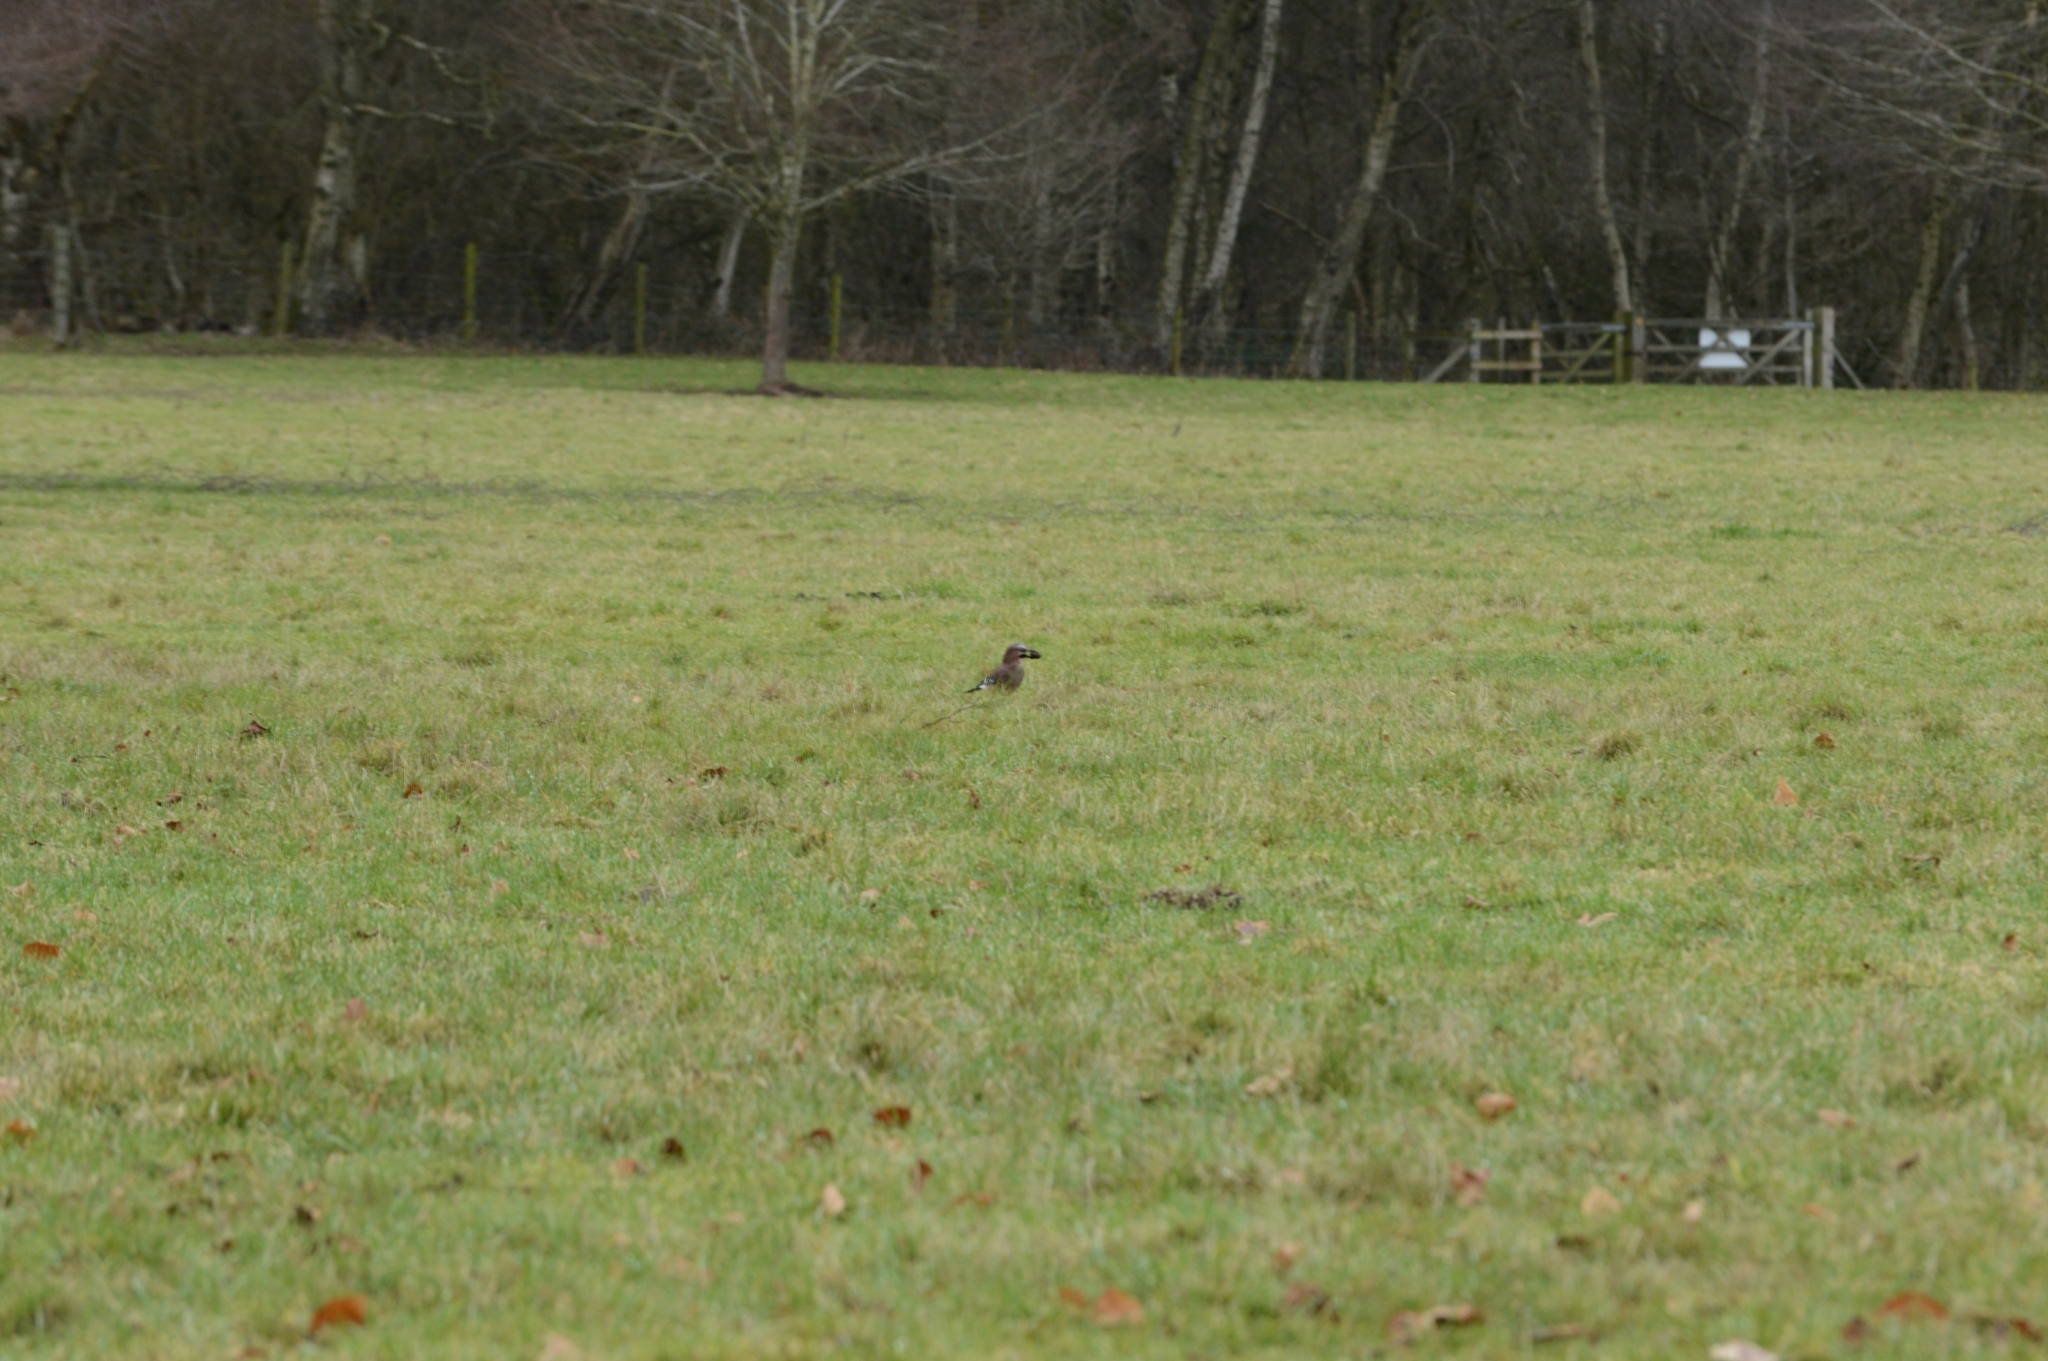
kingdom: Animalia
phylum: Chordata
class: Aves
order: Passeriformes
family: Corvidae
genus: Garrulus
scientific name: Garrulus glandarius
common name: Eurasian jay
